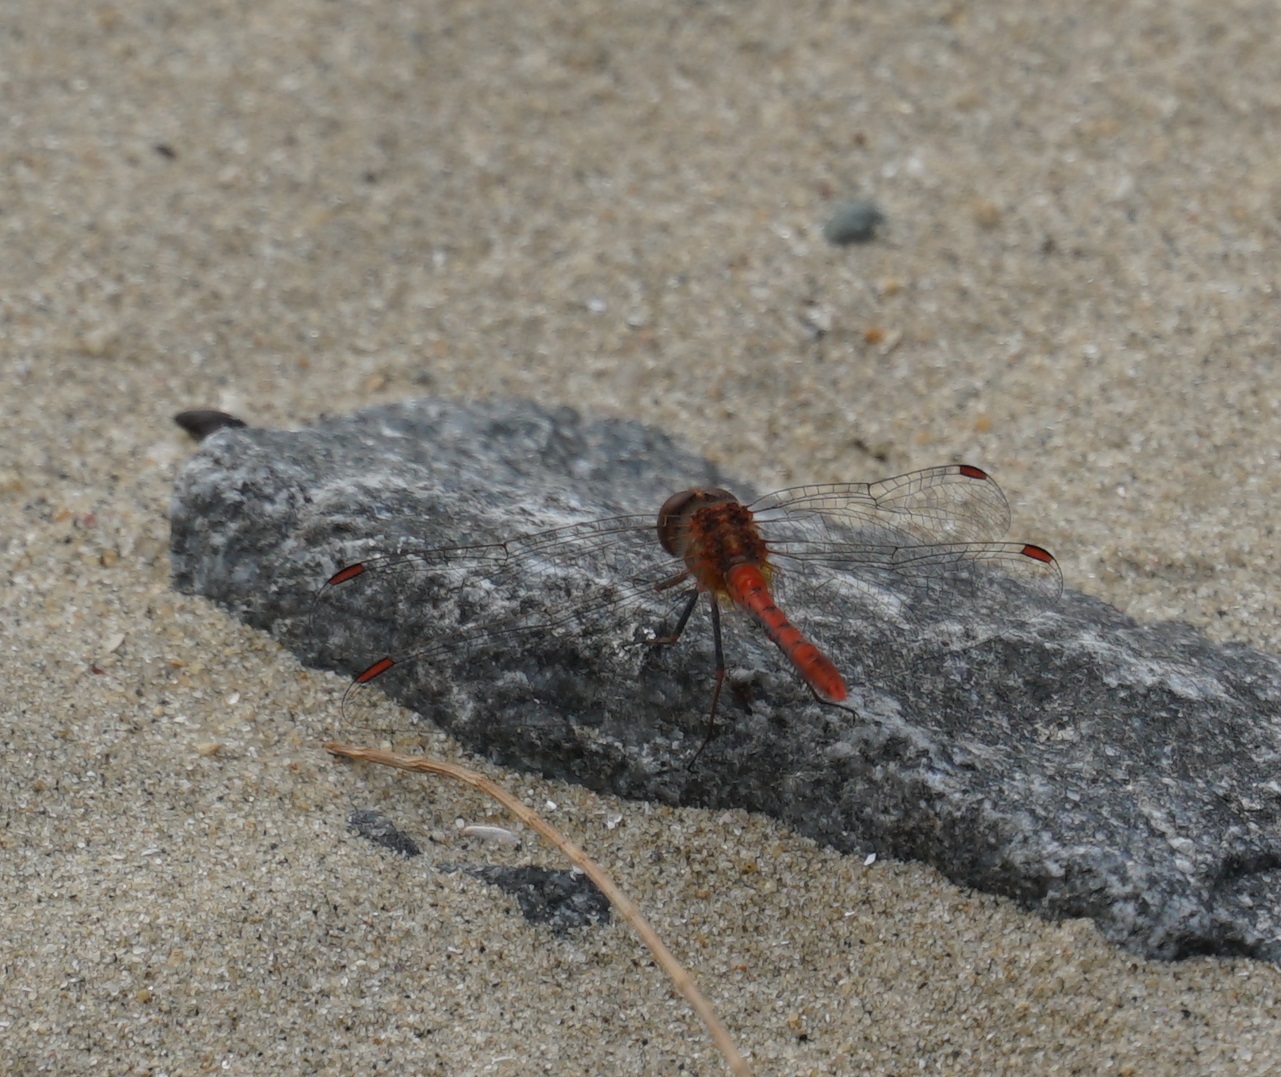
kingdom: Animalia
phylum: Arthropoda
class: Insecta
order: Odonata
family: Libellulidae
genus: Diplacodes
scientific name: Diplacodes bipunctata
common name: Red percher dragonfly
